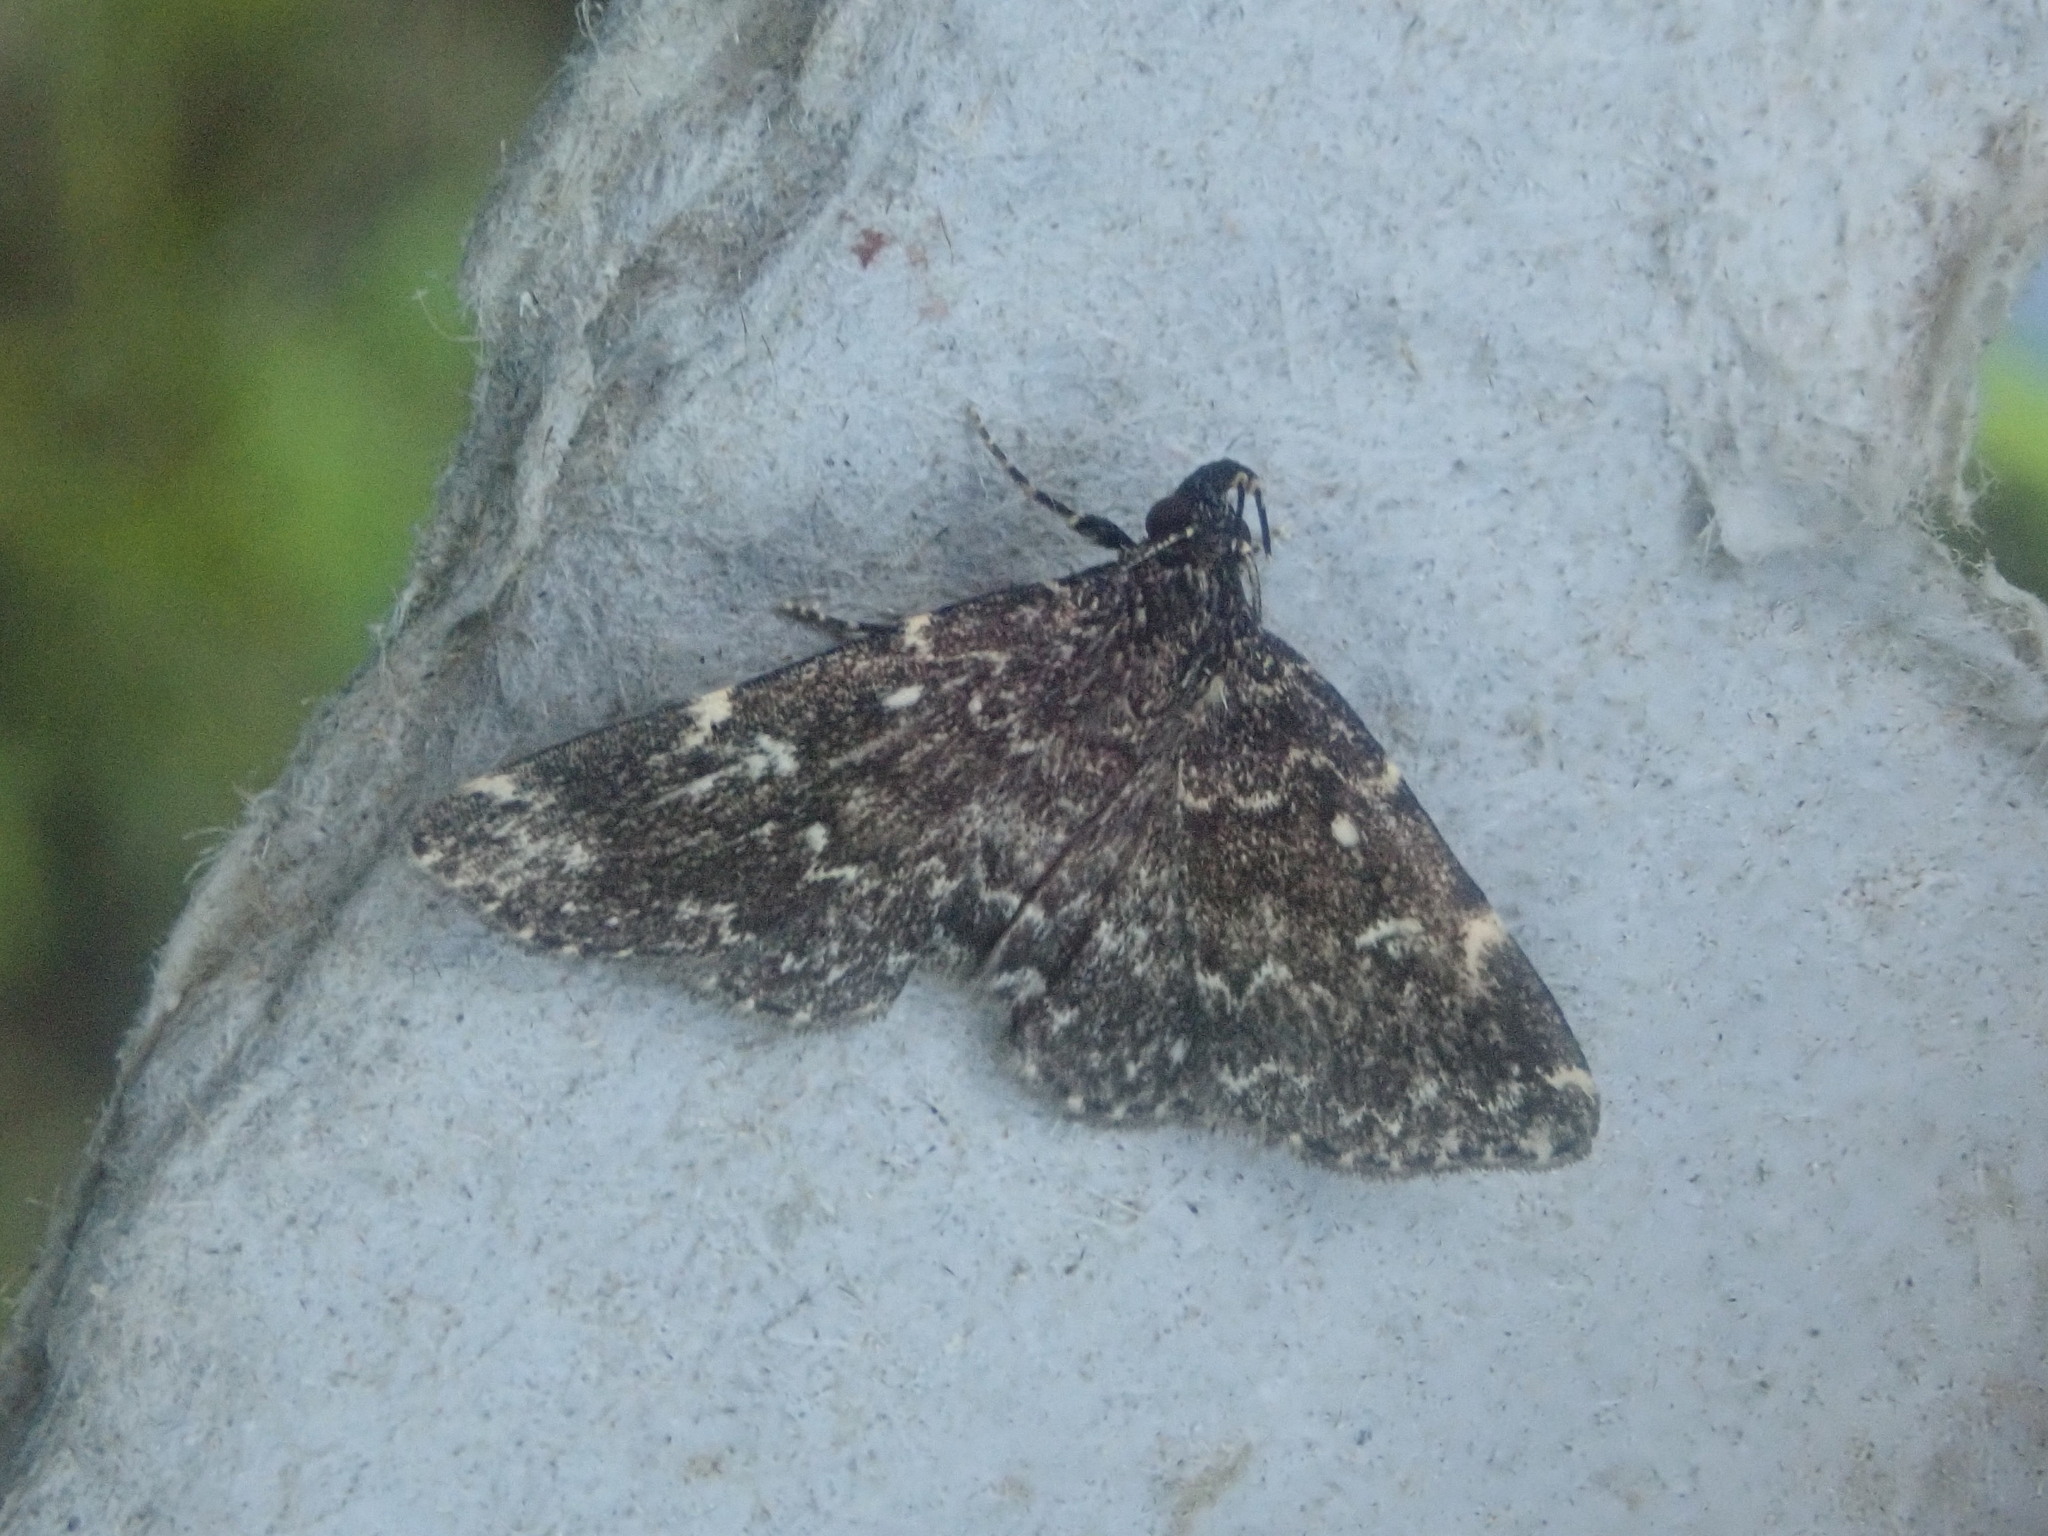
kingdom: Animalia
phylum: Arthropoda
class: Insecta
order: Lepidoptera
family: Erebidae
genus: Idia
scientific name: Idia scobialis
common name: Smoky idia moth
